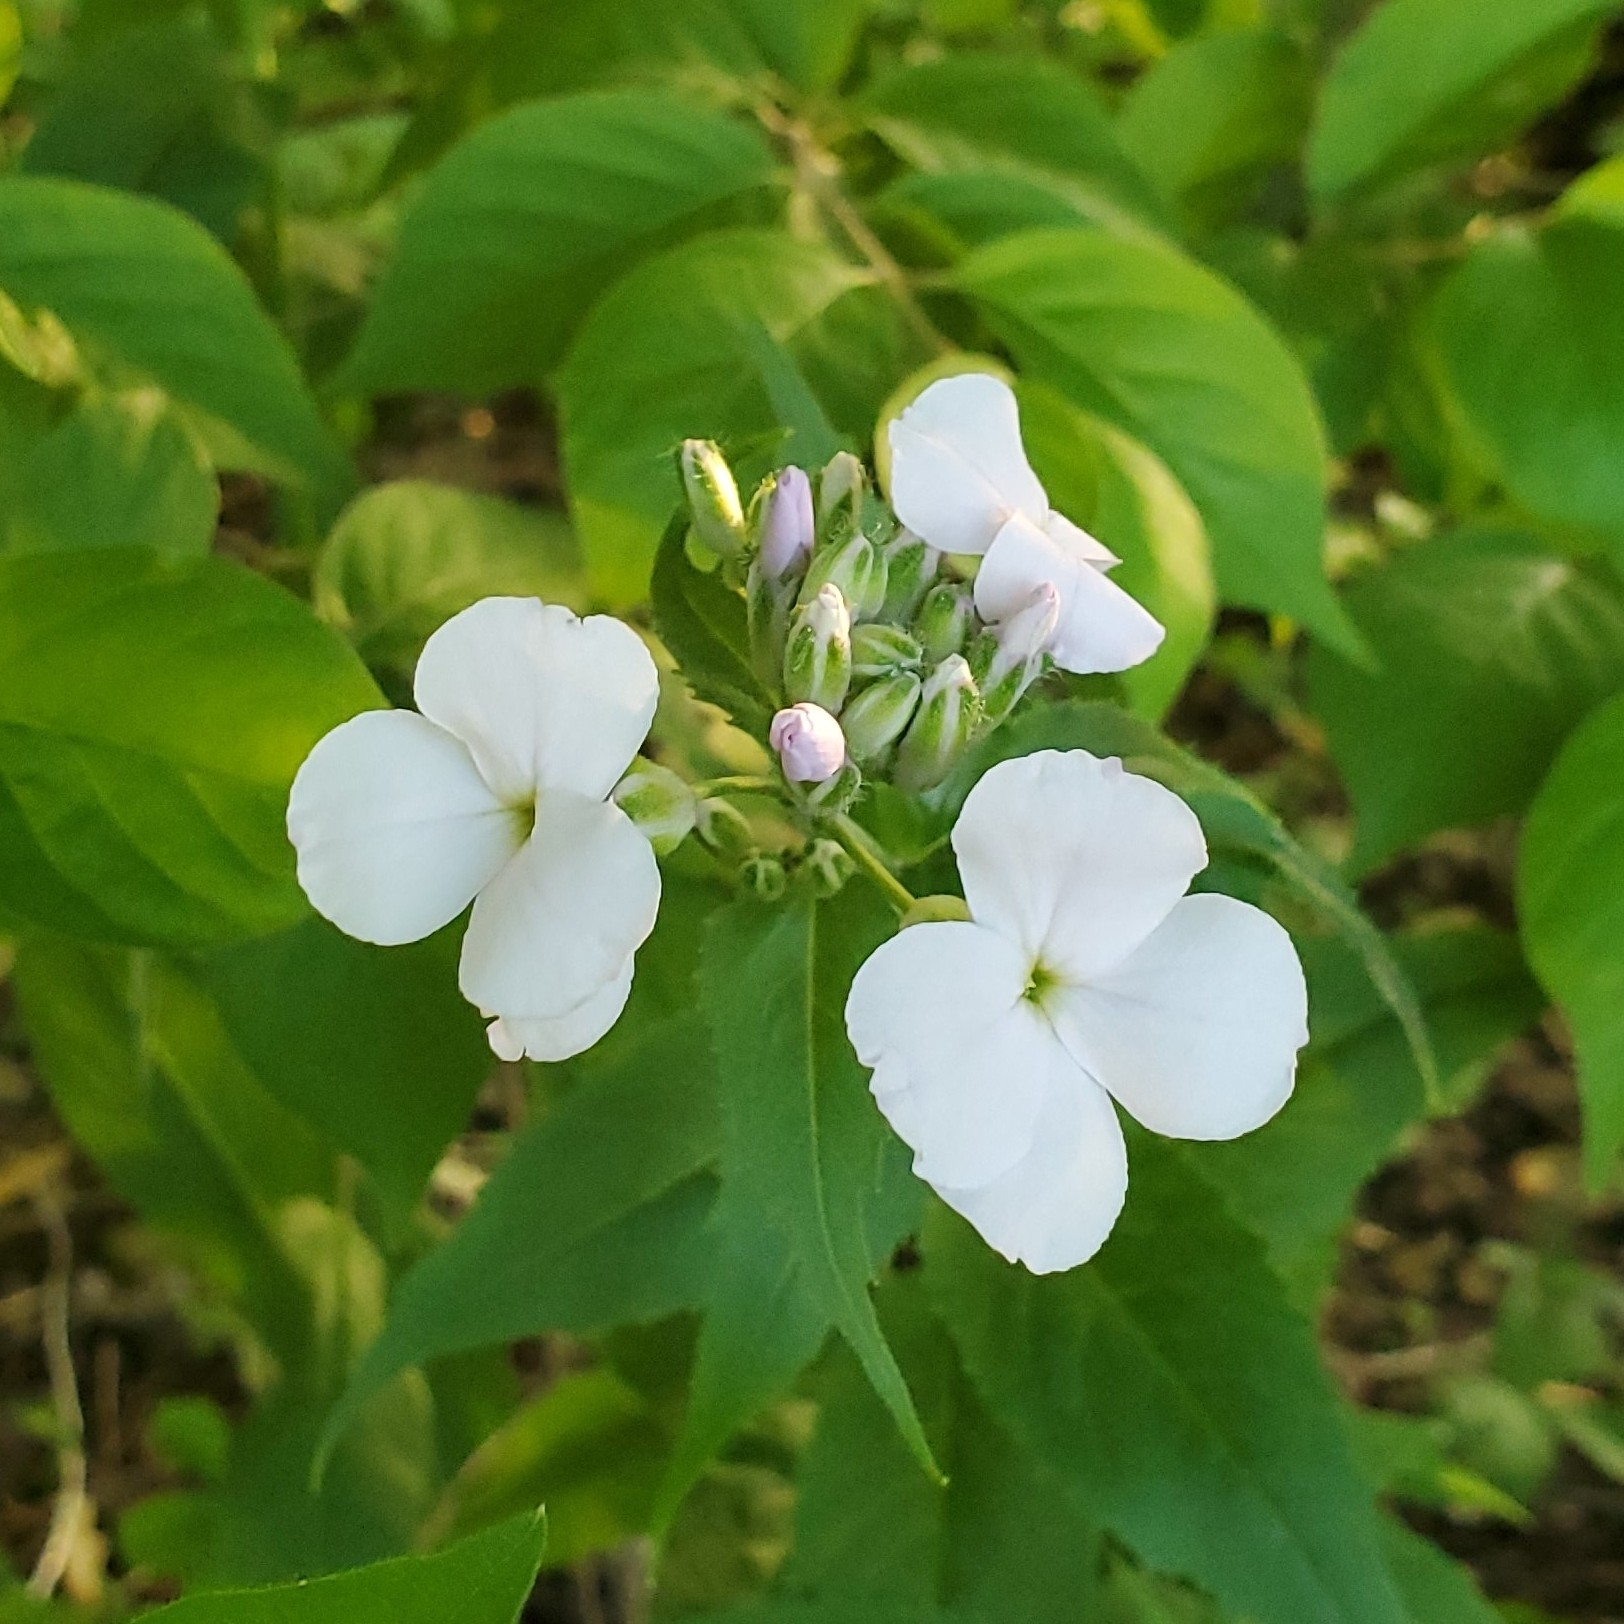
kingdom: Plantae
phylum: Tracheophyta
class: Magnoliopsida
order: Brassicales
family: Brassicaceae
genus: Hesperis
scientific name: Hesperis matronalis
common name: Dame's-violet
